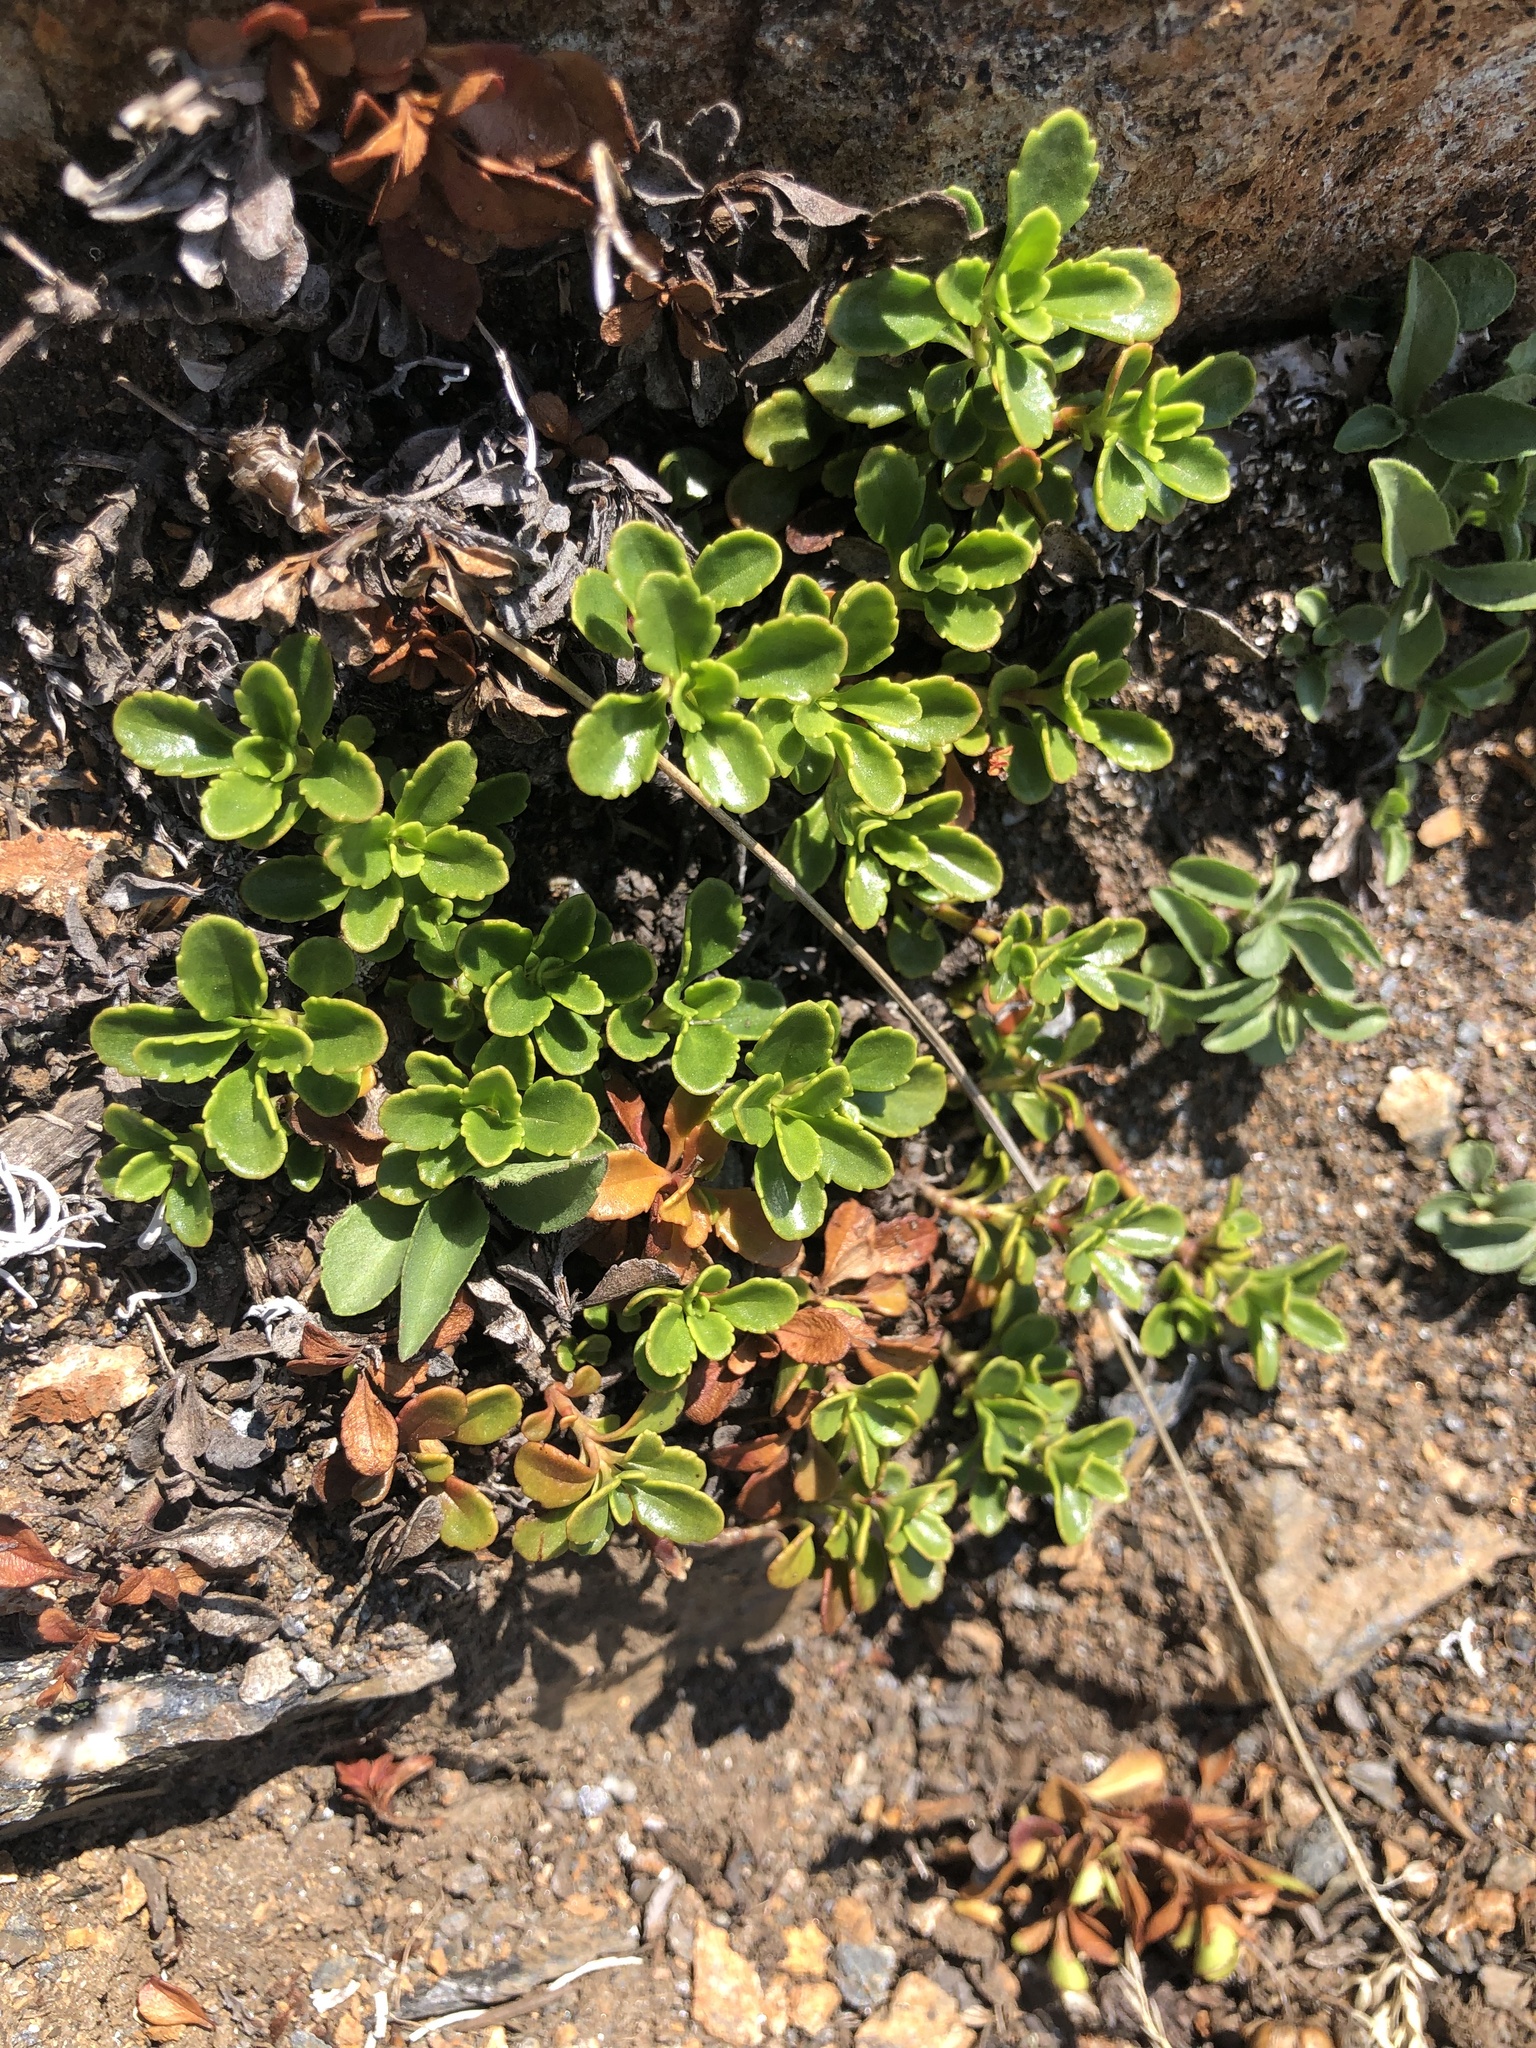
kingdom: Plantae
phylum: Tracheophyta
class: Magnoliopsida
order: Lamiales
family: Plantaginaceae
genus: Penstemon
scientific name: Penstemon davidsonii
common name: Davidson's penstemon
